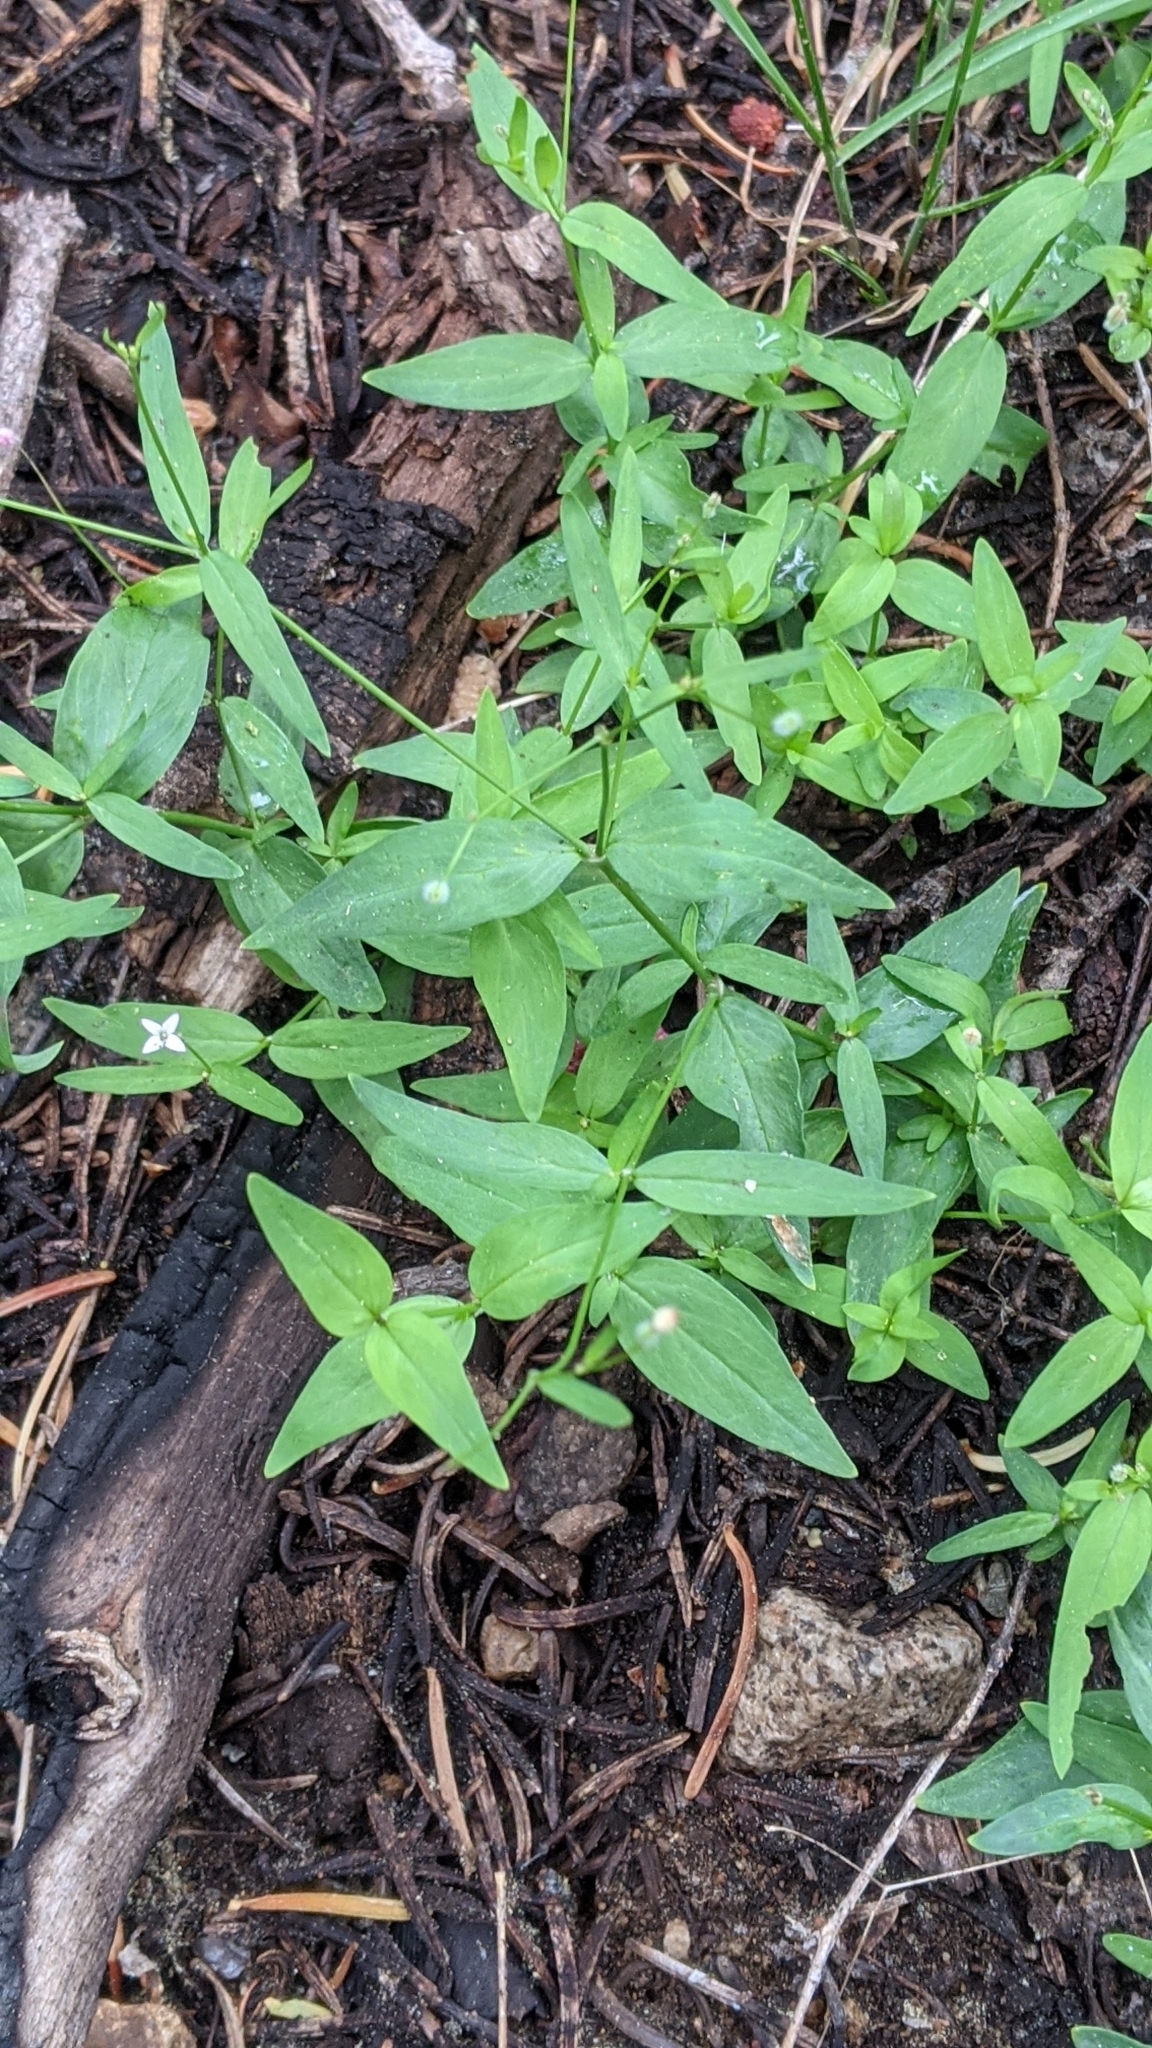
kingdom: Plantae
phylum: Tracheophyta
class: Magnoliopsida
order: Gentianales
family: Rubiaceae
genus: Kelloggia
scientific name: Kelloggia galioides
